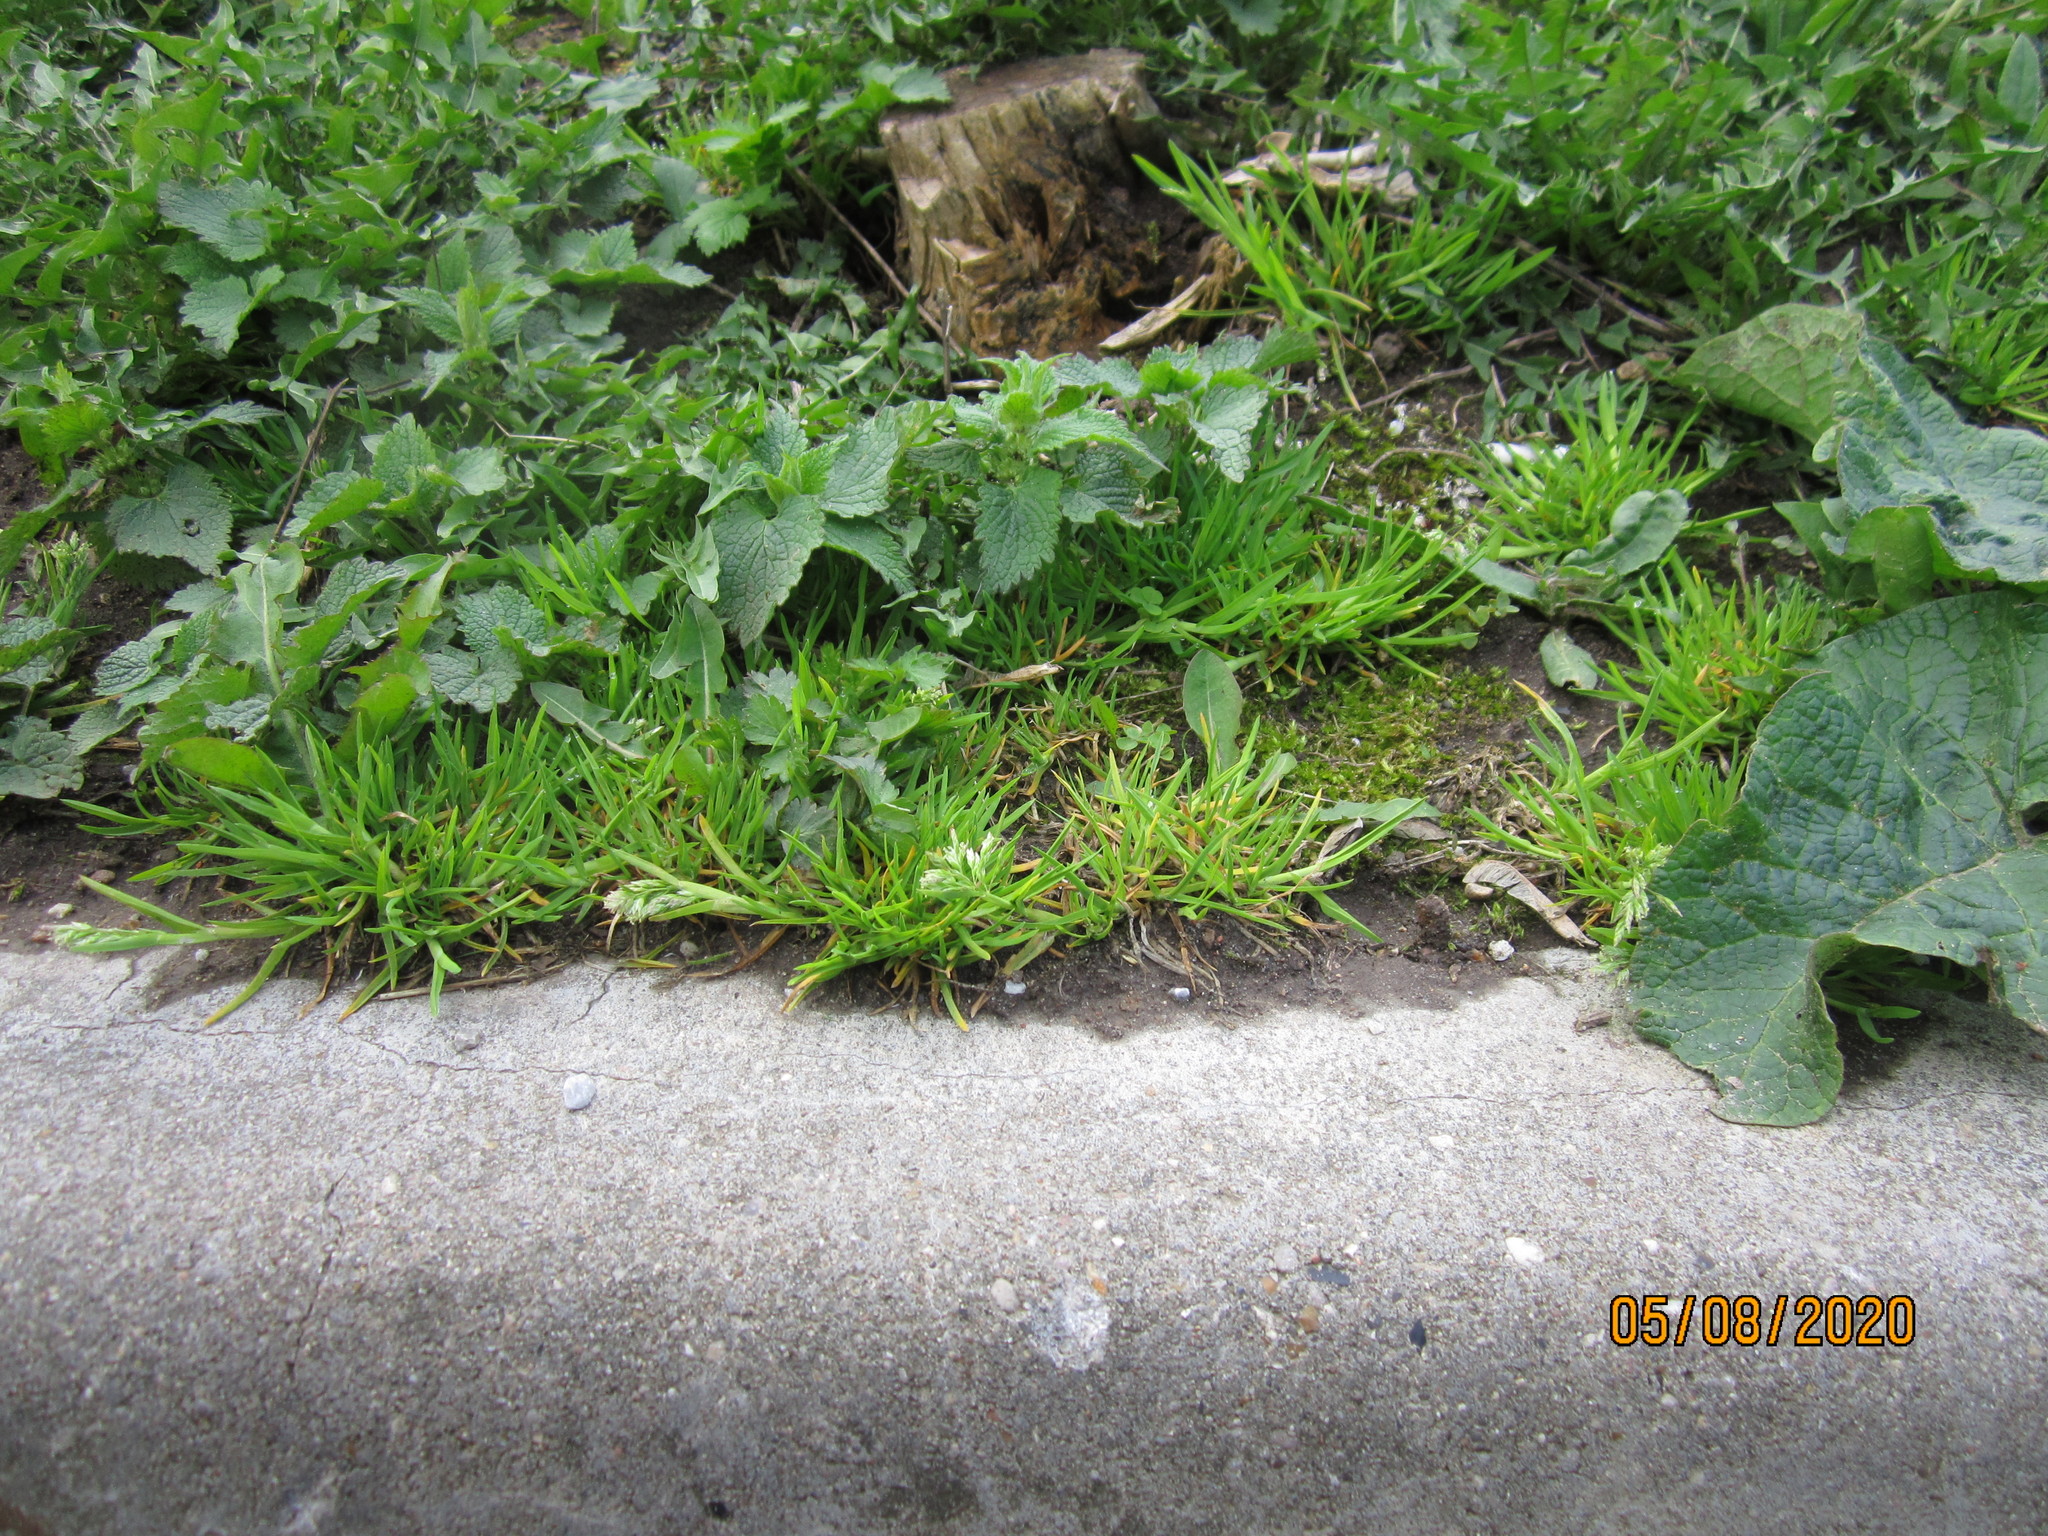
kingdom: Plantae
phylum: Tracheophyta
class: Liliopsida
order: Poales
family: Poaceae
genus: Poa
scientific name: Poa annua
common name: Annual bluegrass
